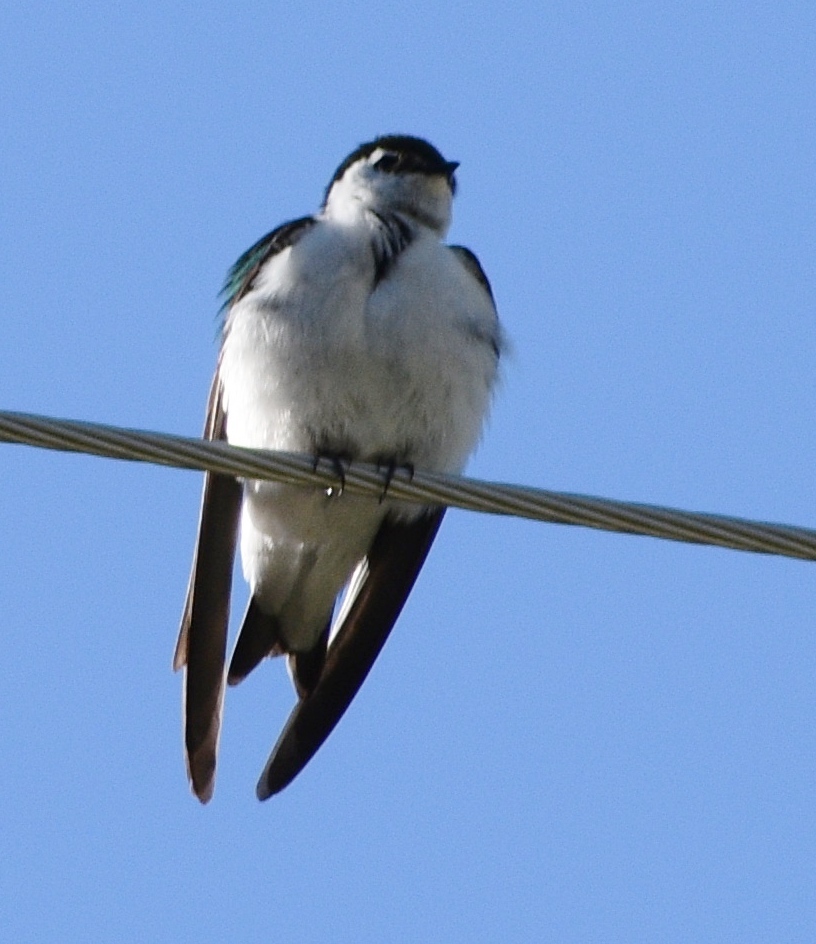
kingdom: Animalia
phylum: Chordata
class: Aves
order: Passeriformes
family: Hirundinidae
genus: Tachycineta
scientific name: Tachycineta thalassina
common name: Violet-green swallow
